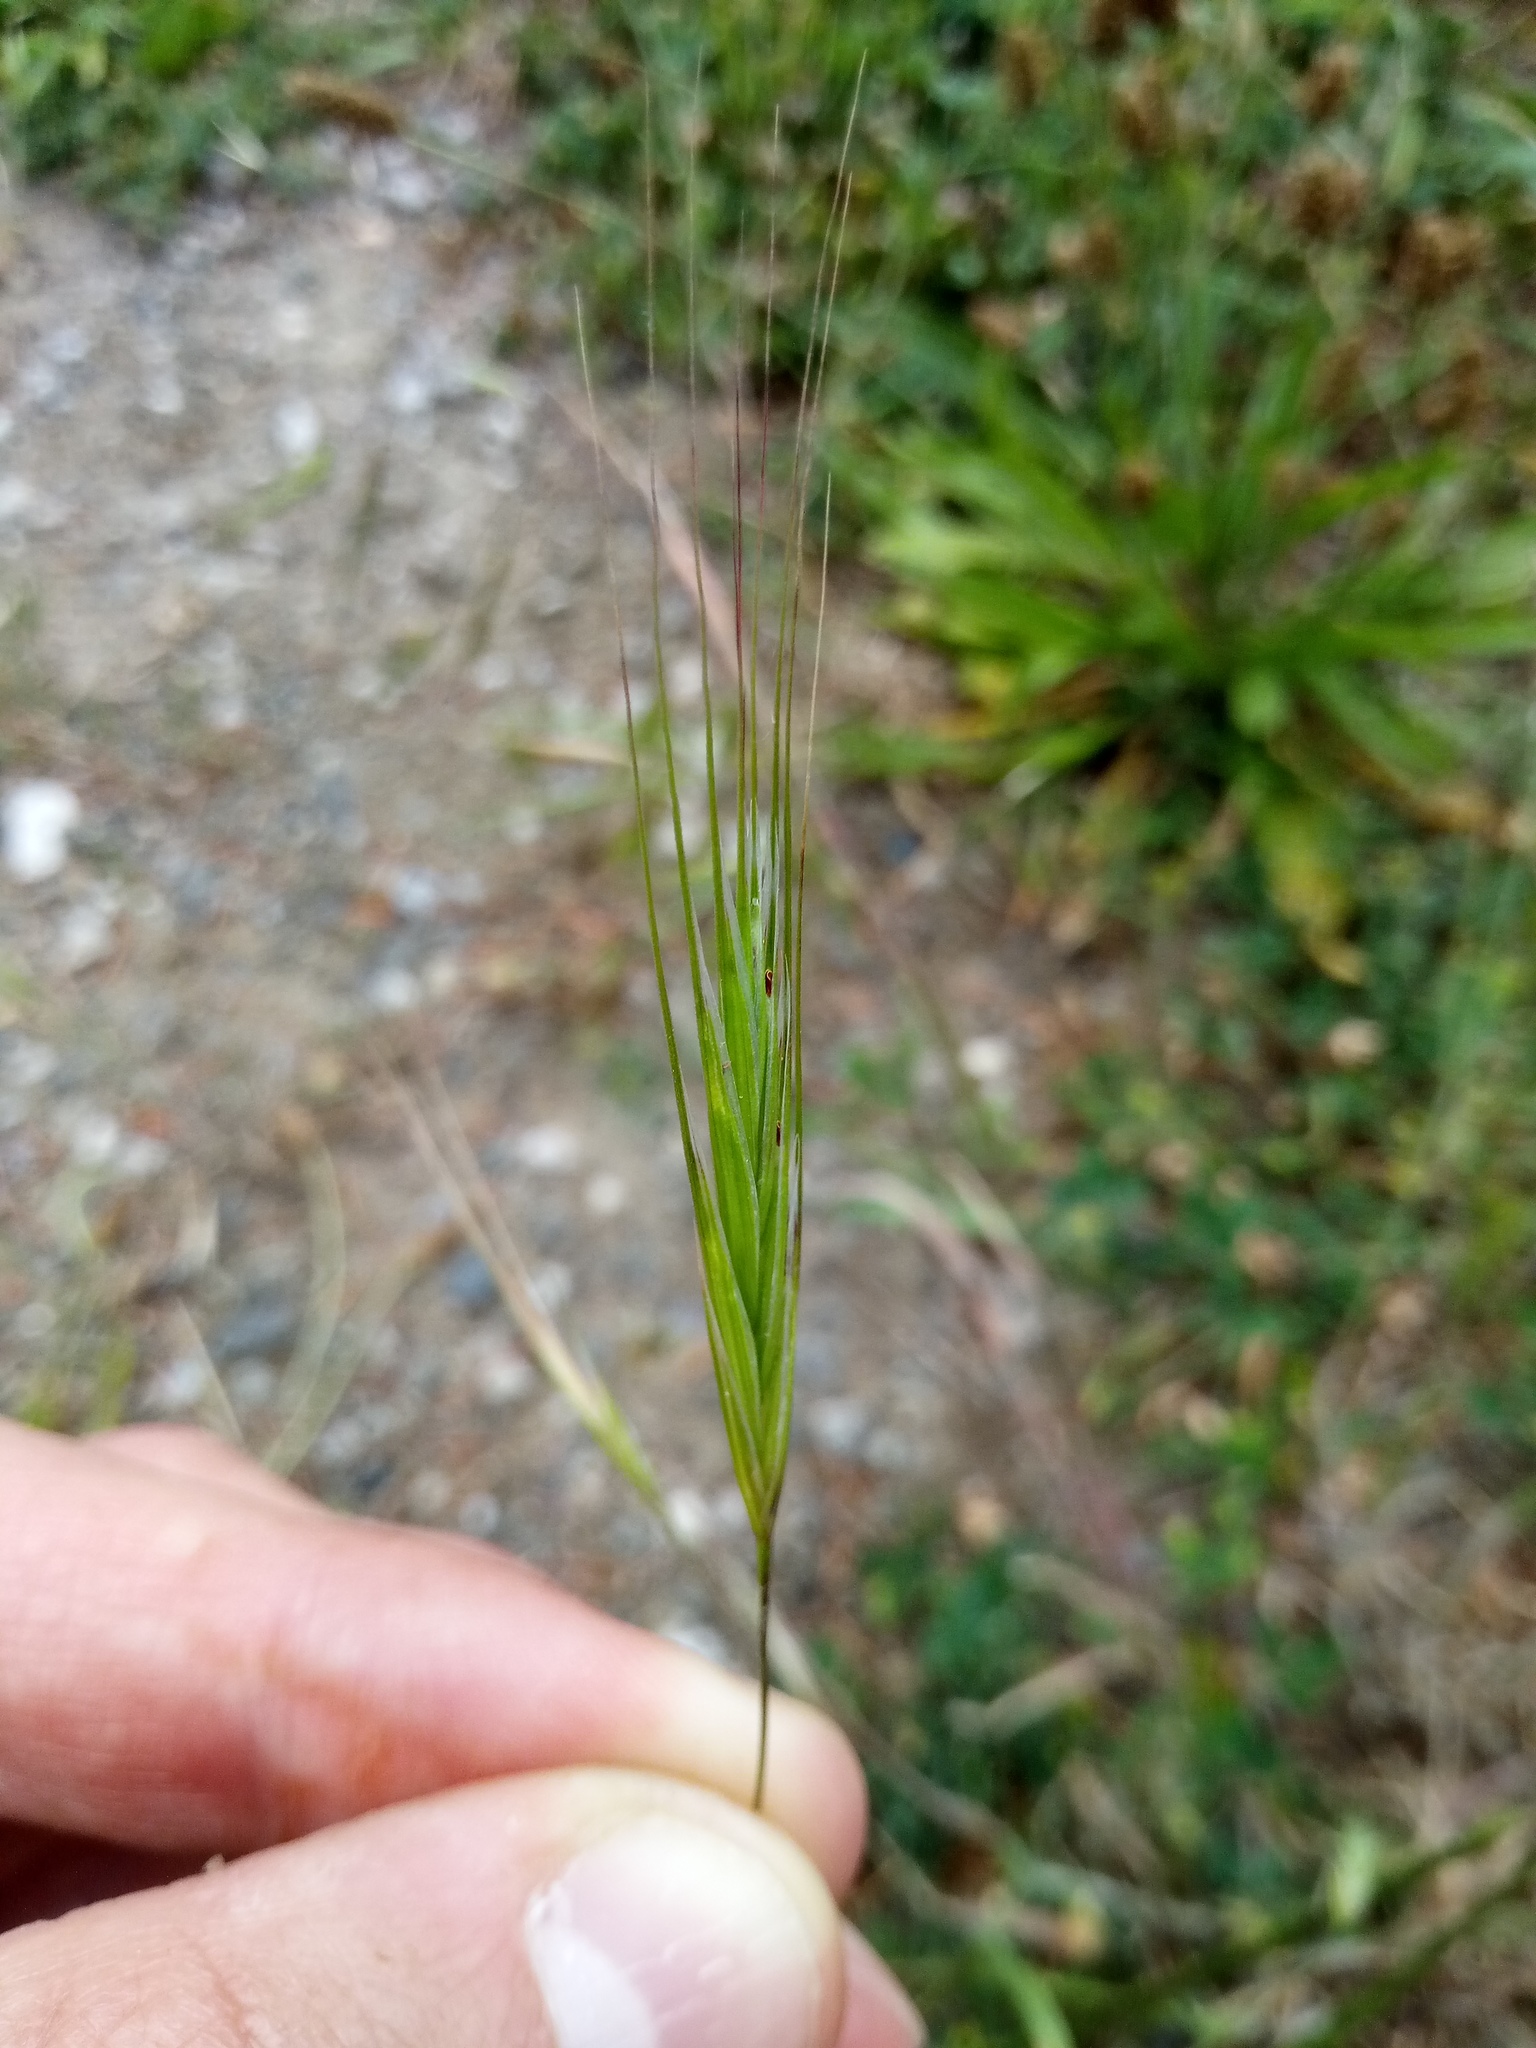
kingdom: Plantae
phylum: Tracheophyta
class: Liliopsida
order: Poales
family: Poaceae
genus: Bromus
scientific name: Bromus sterilis
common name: Poverty brome
